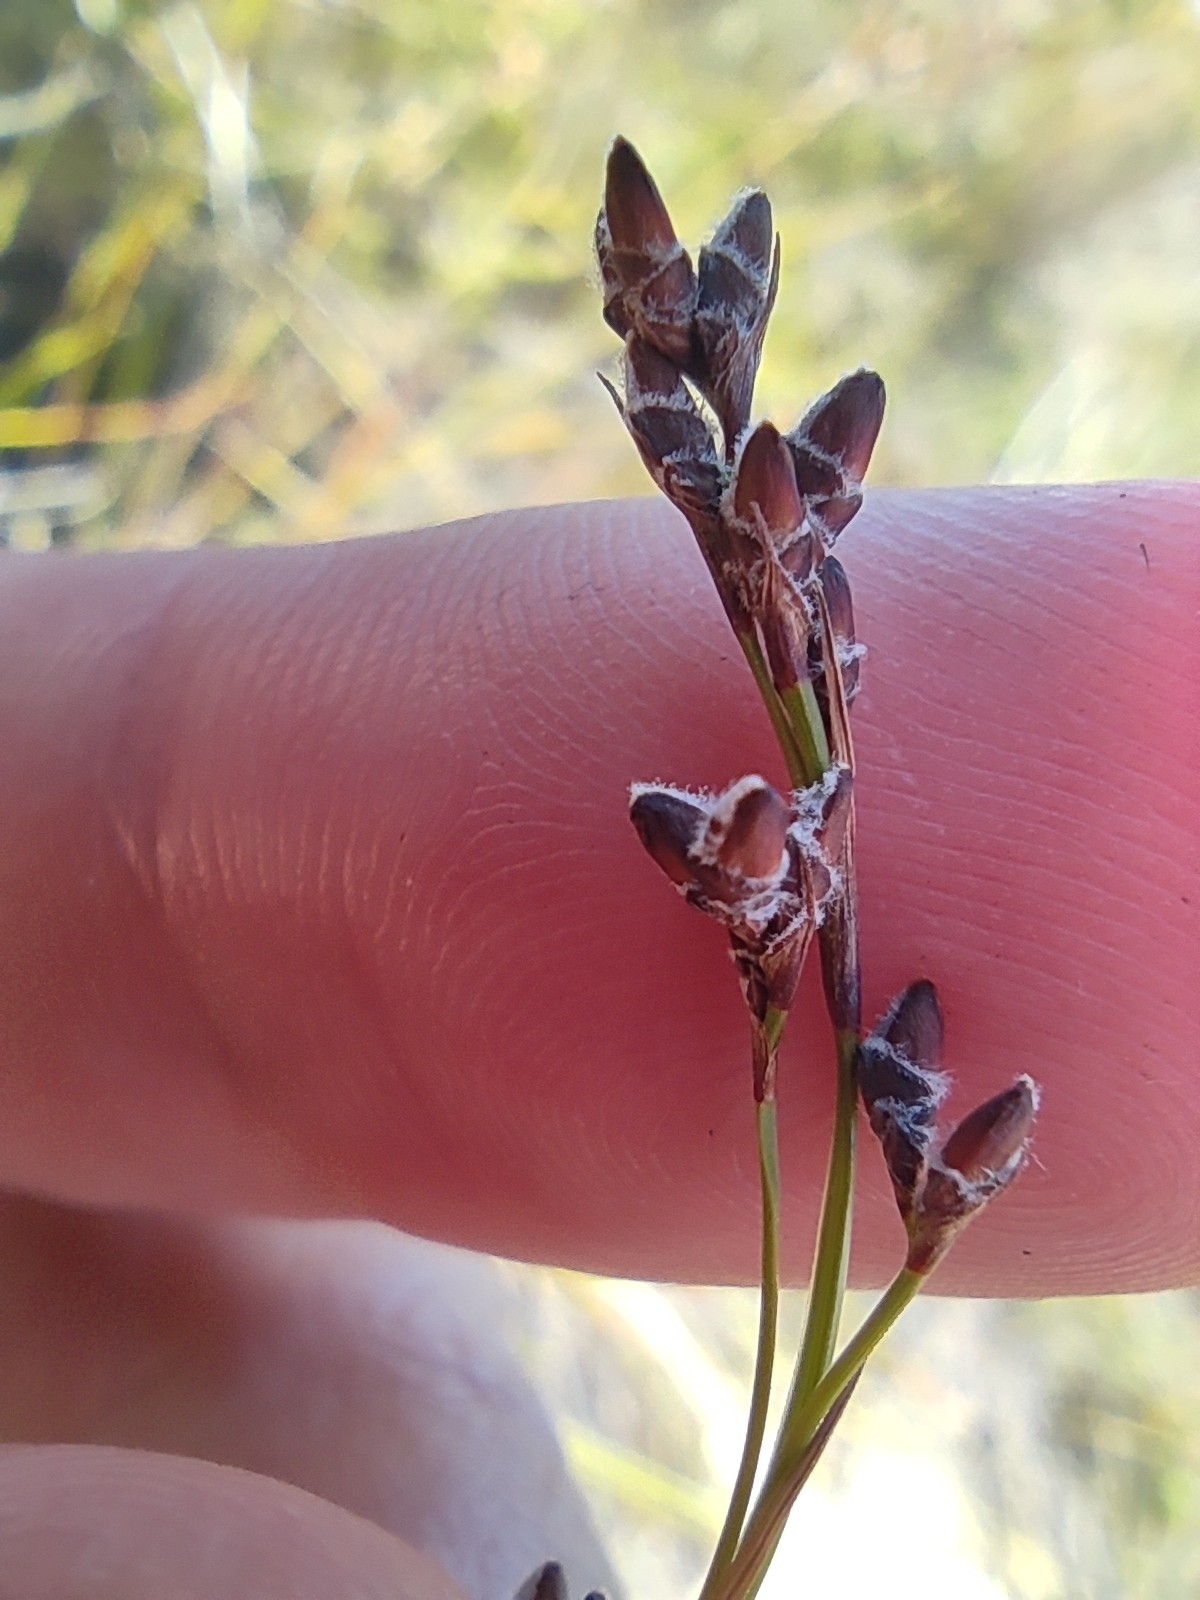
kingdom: Plantae
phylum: Tracheophyta
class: Liliopsida
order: Poales
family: Cyperaceae
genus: Tetraria
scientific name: Tetraria fimbriolata
